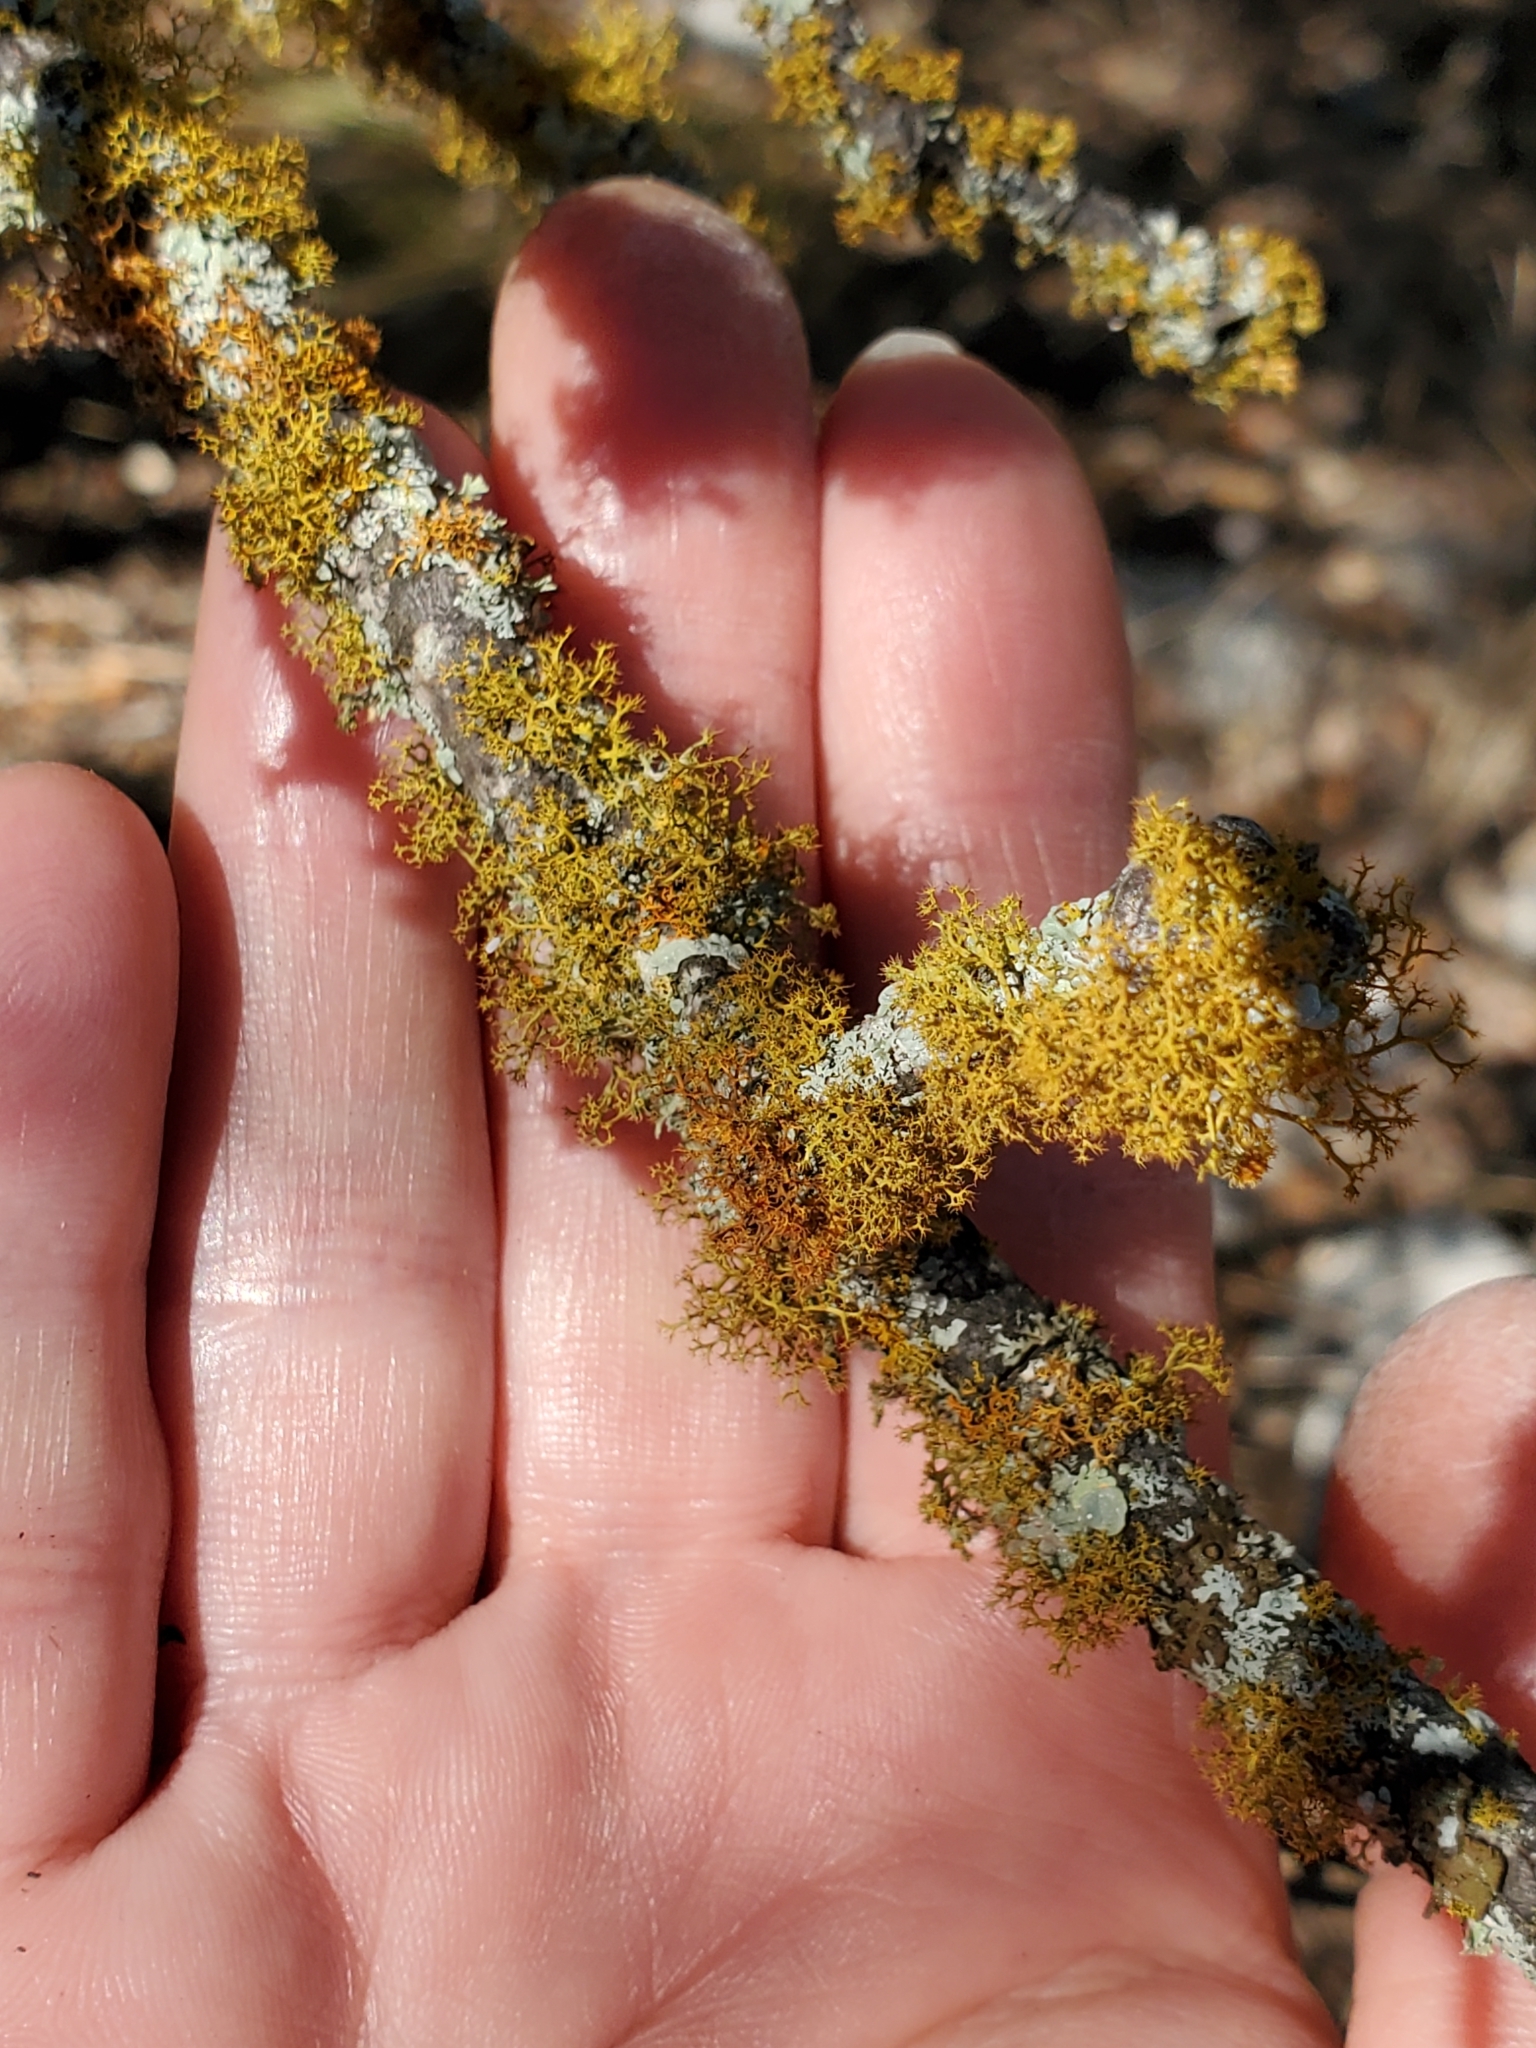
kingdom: Fungi
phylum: Ascomycota
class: Lecanoromycetes
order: Teloschistales
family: Teloschistaceae
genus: Teloschistes
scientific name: Teloschistes exilis
